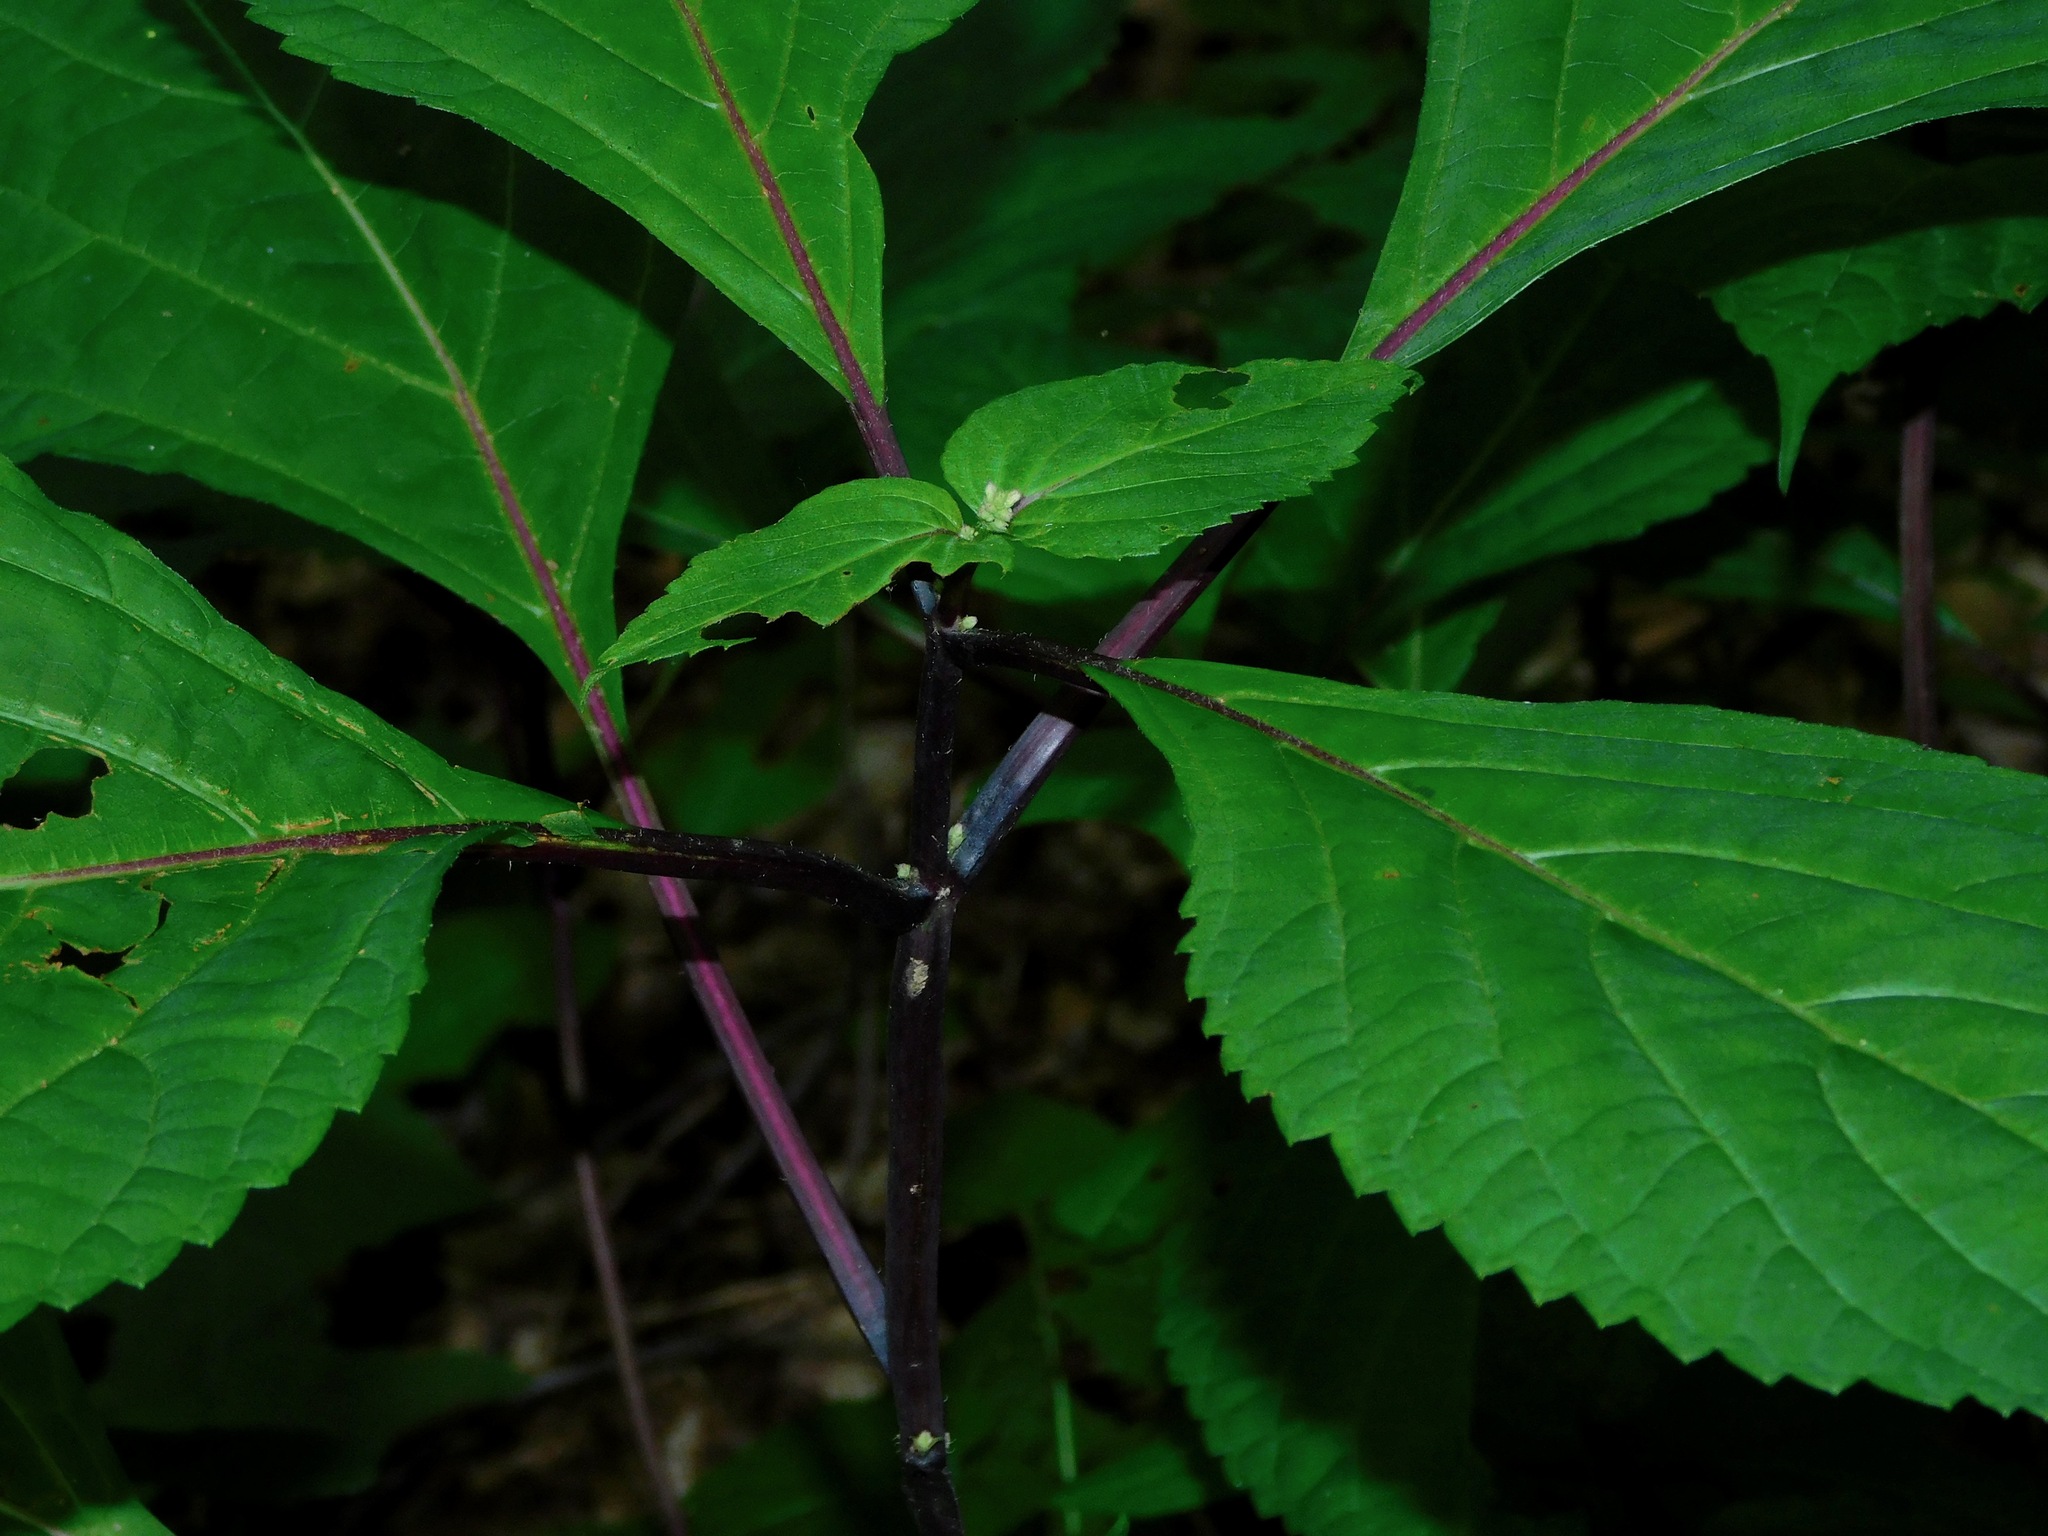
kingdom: Plantae
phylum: Tracheophyta
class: Magnoliopsida
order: Lamiales
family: Lamiaceae
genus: Collinsonia
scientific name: Collinsonia canadensis
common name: Northern horsebalm
